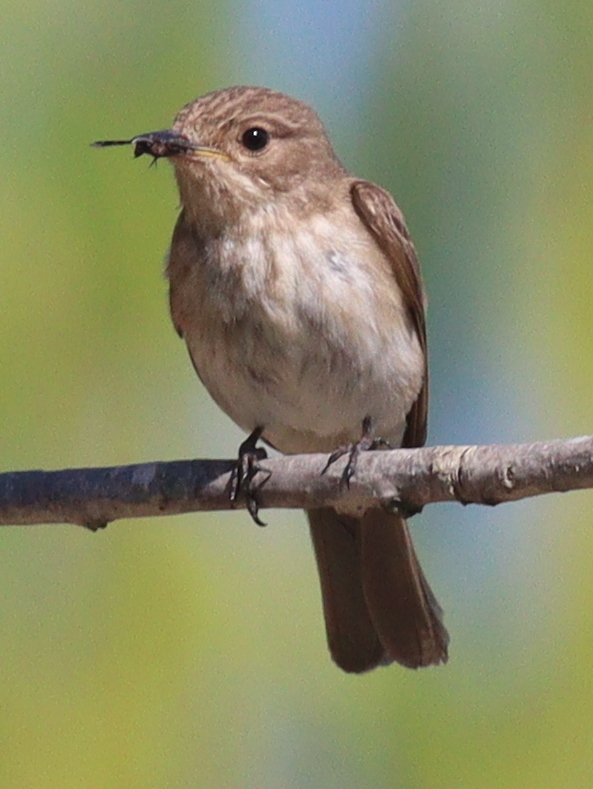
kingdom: Animalia
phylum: Chordata
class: Aves
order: Passeriformes
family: Muscicapidae
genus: Muscicapa
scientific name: Muscicapa striata
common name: Spotted flycatcher
